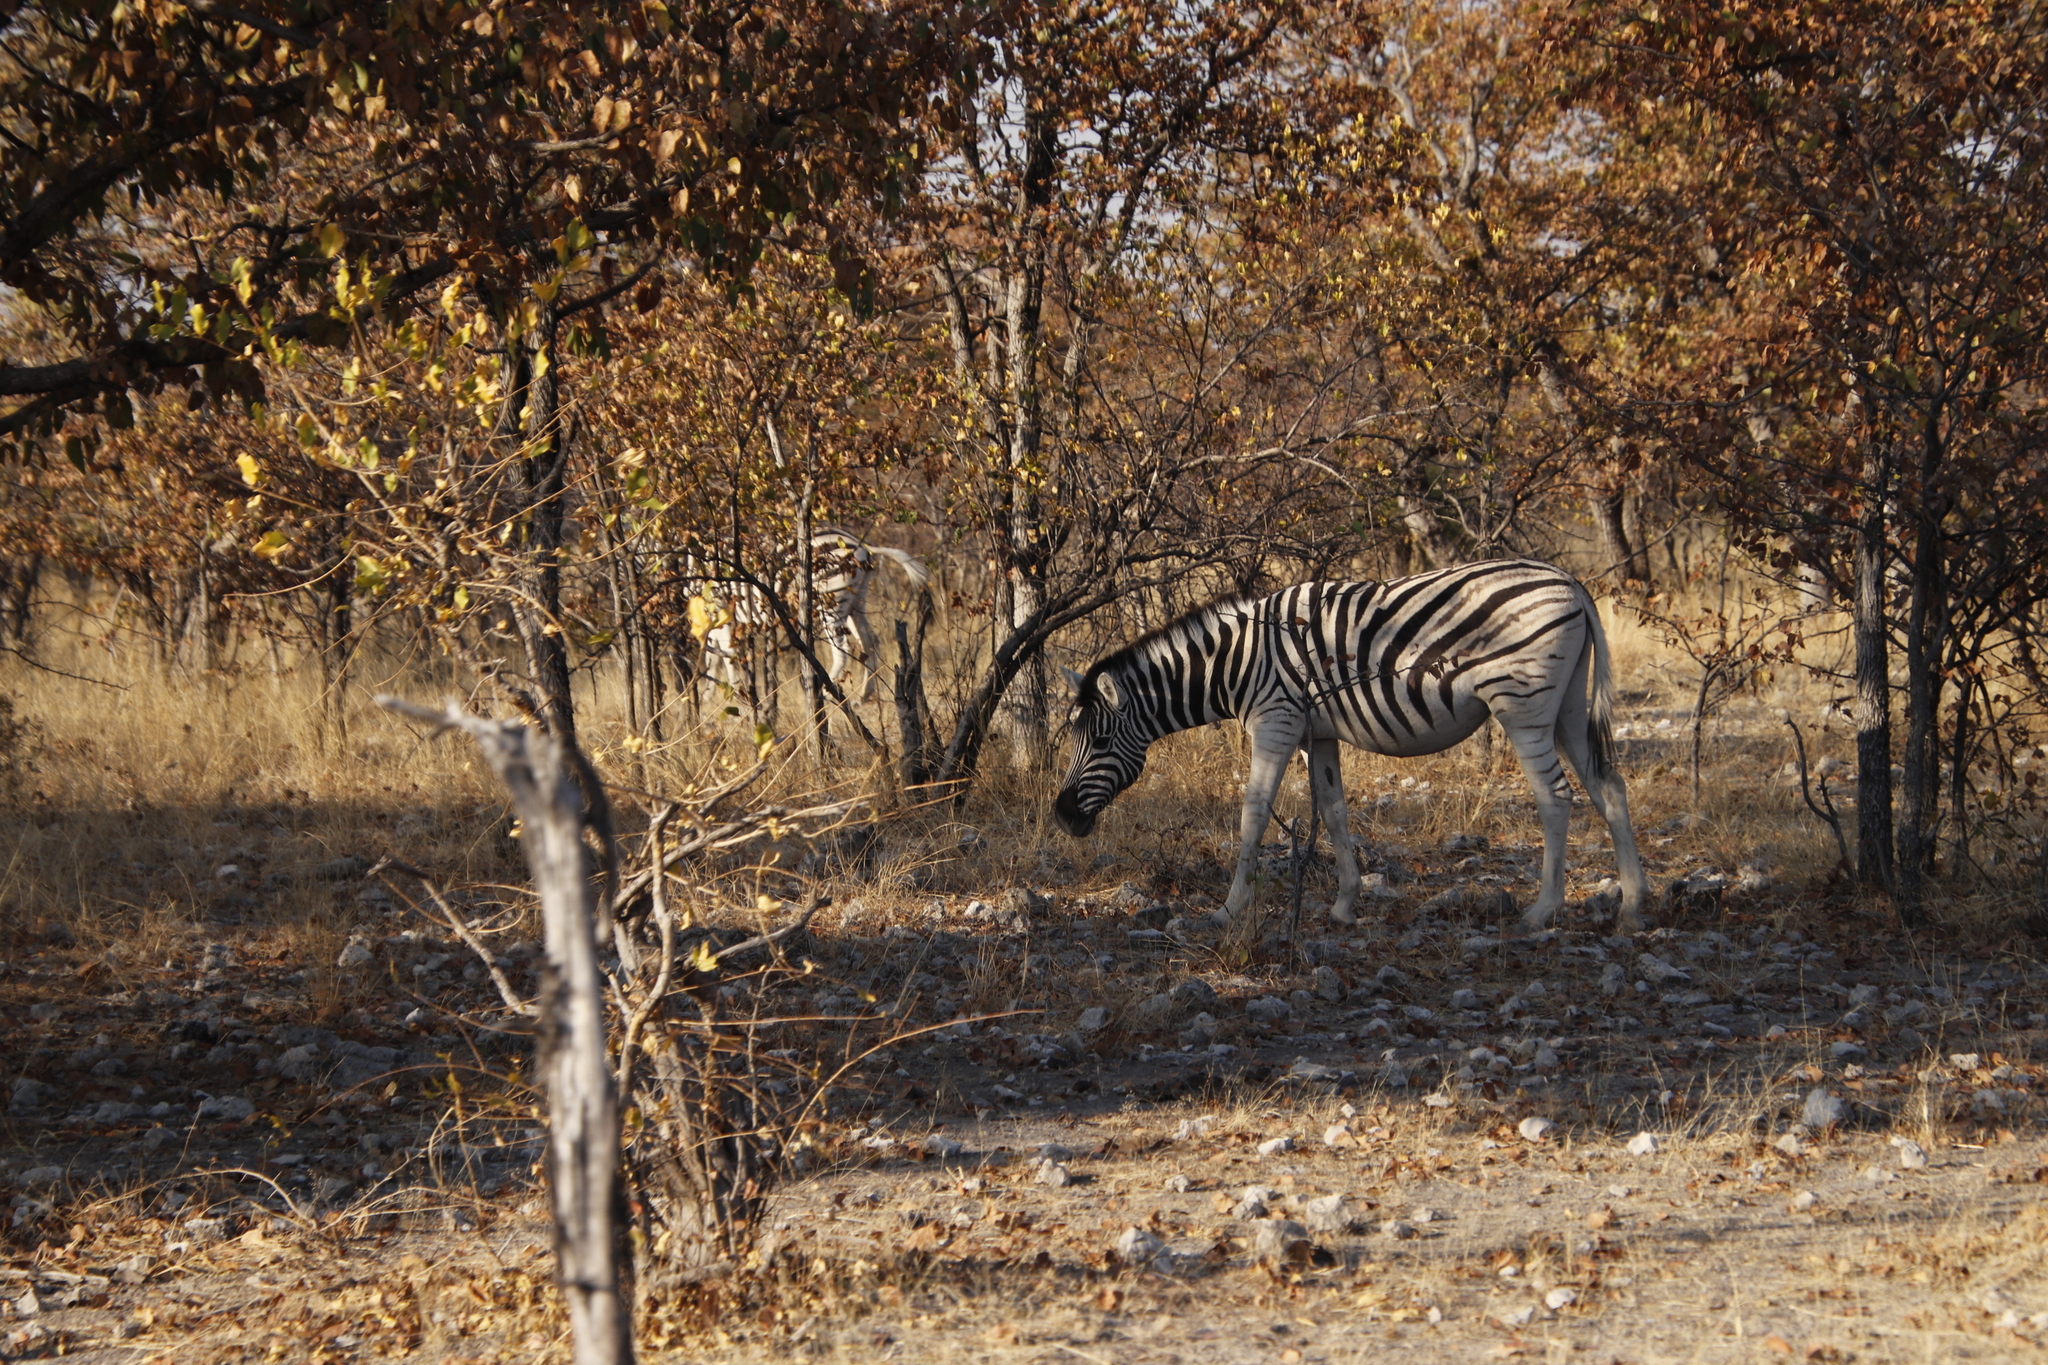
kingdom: Animalia
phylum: Chordata
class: Mammalia
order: Perissodactyla
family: Equidae
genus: Equus
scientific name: Equus quagga
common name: Plains zebra
